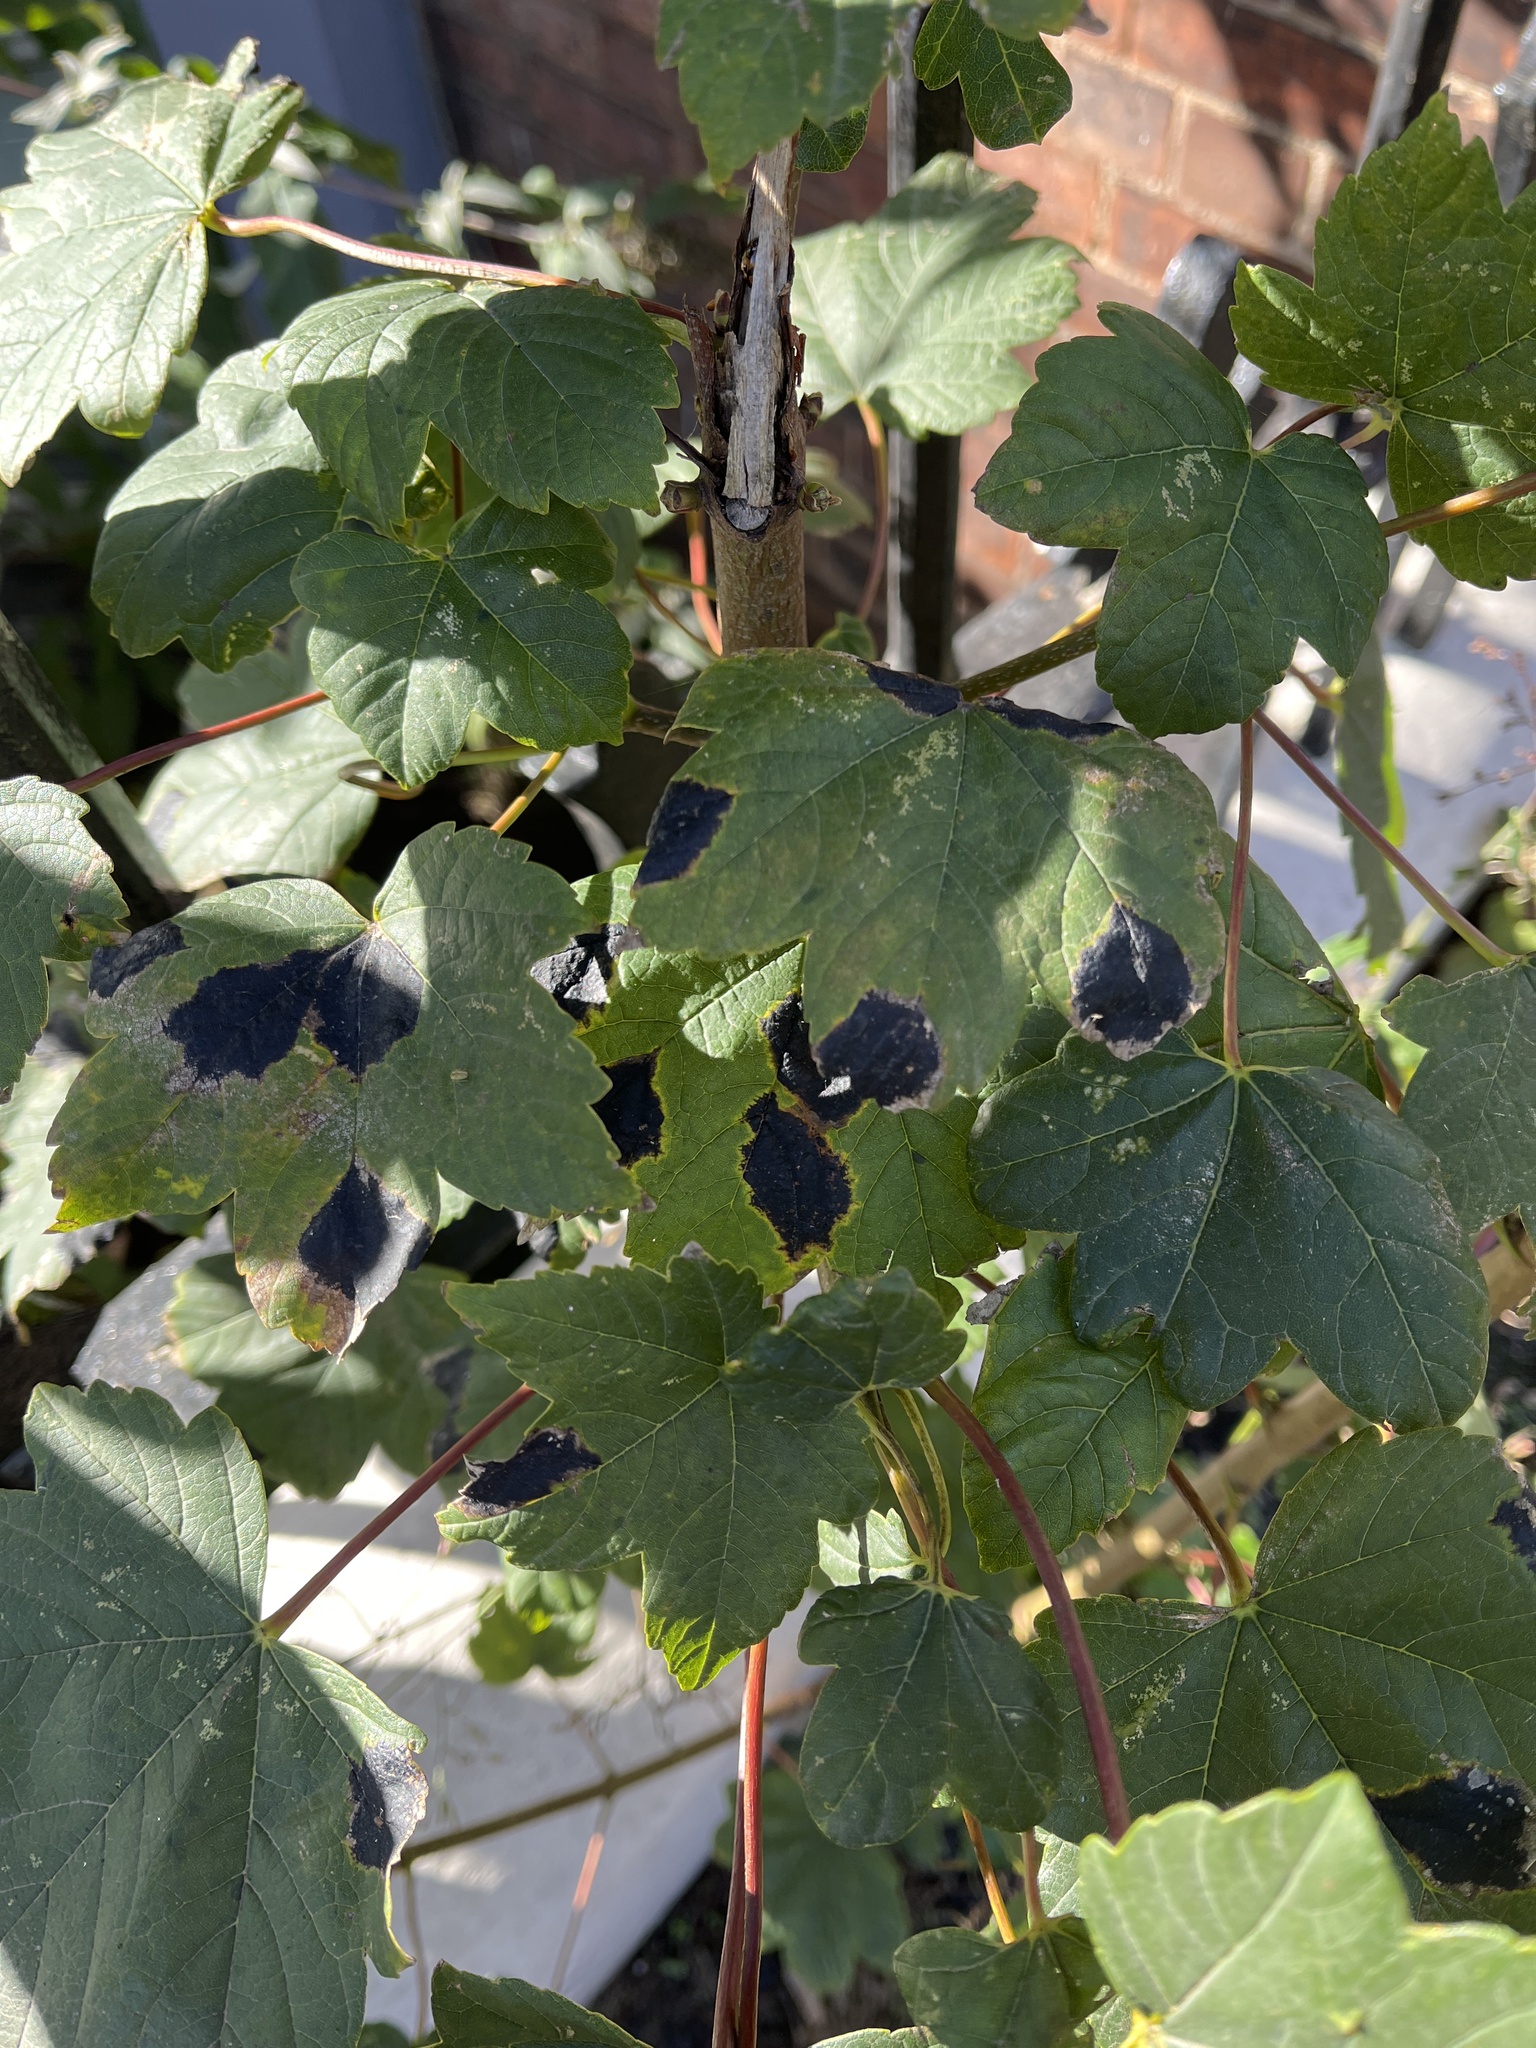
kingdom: Fungi
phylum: Ascomycota
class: Leotiomycetes
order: Rhytismatales
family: Rhytismataceae
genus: Rhytisma
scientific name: Rhytisma acerinum
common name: European tar spot
